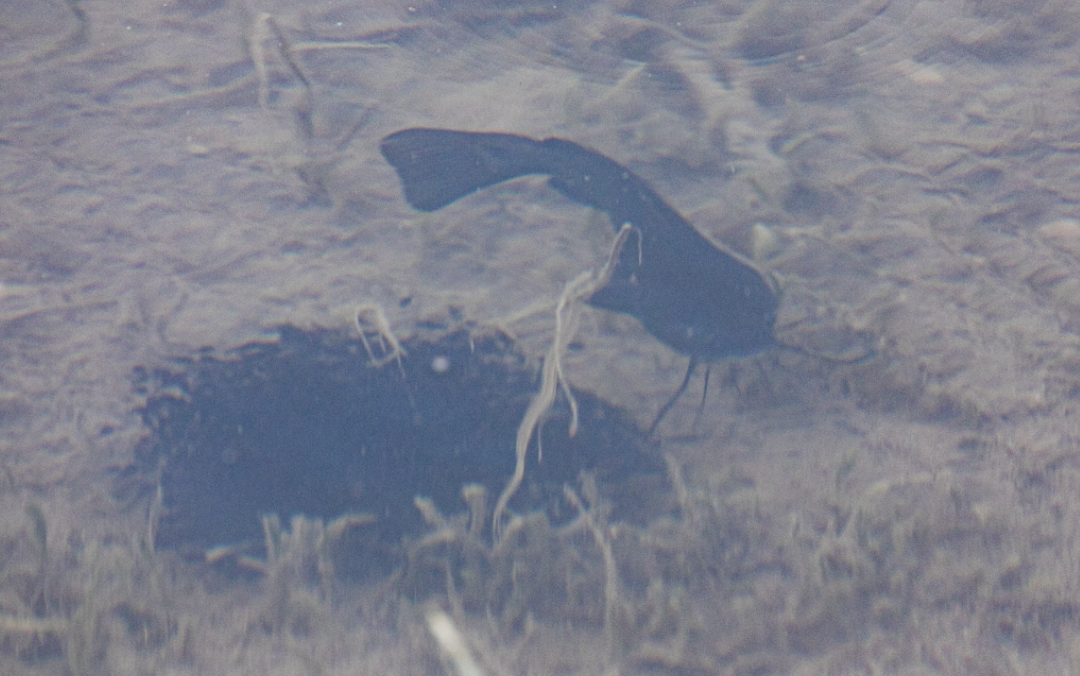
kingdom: Animalia
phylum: Chordata
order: Siluriformes
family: Ictaluridae
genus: Ameiurus
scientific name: Ameiurus melas
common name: Black bullhead
